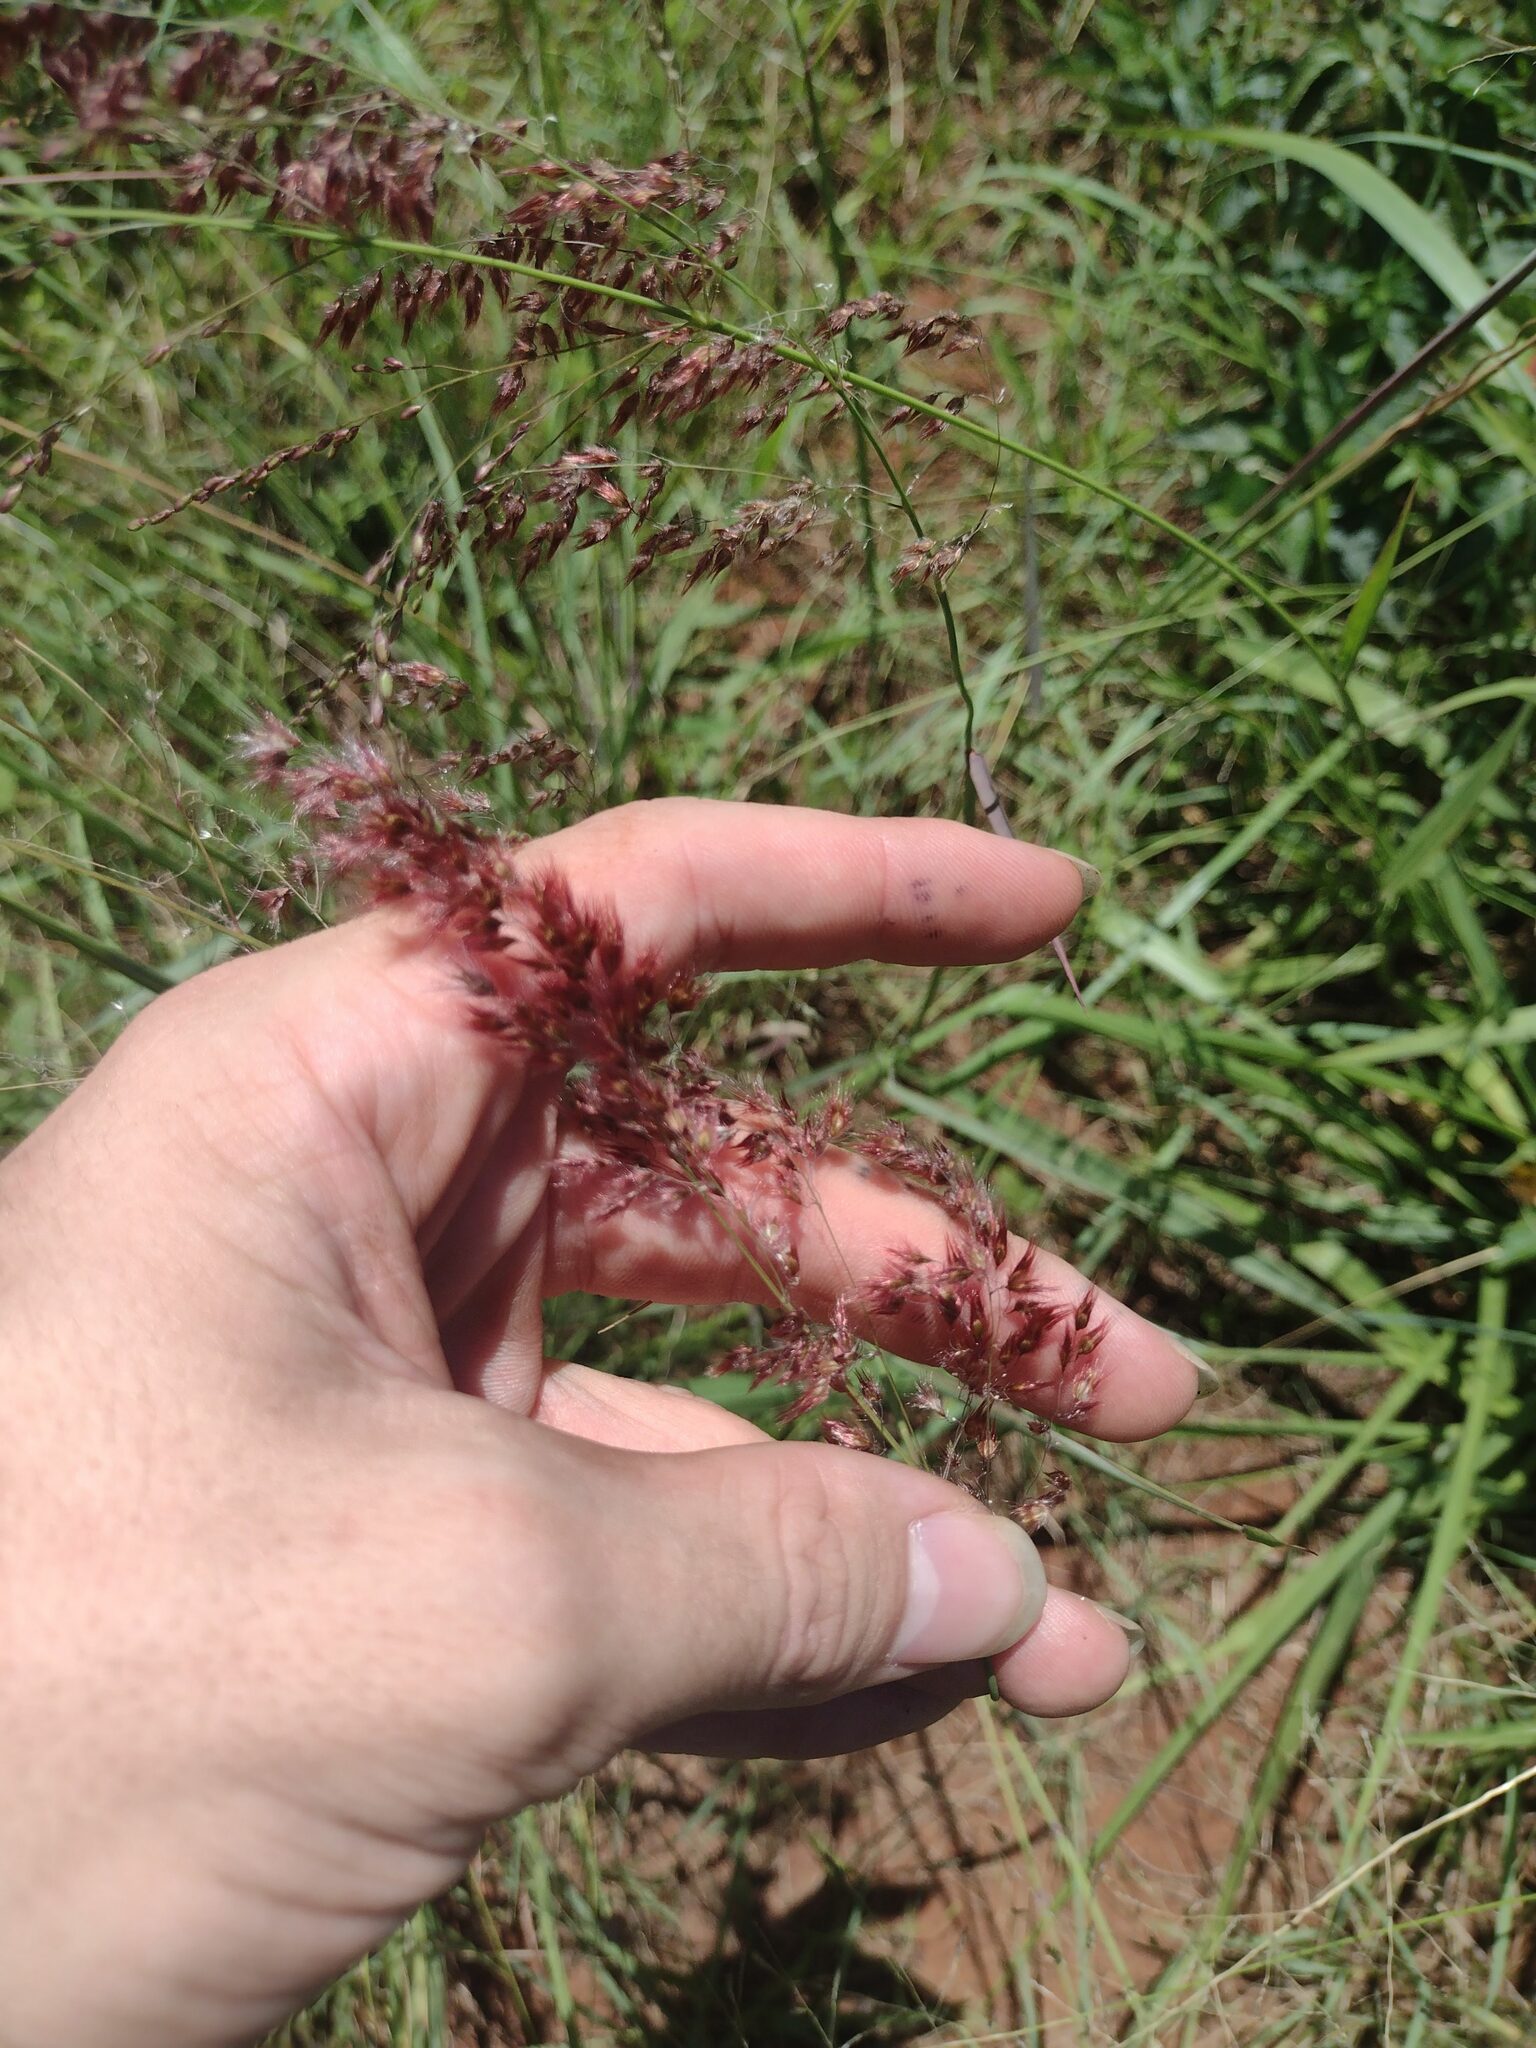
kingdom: Plantae
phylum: Tracheophyta
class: Liliopsida
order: Poales
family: Poaceae
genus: Melinis
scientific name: Melinis repens
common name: Rose natal grass
